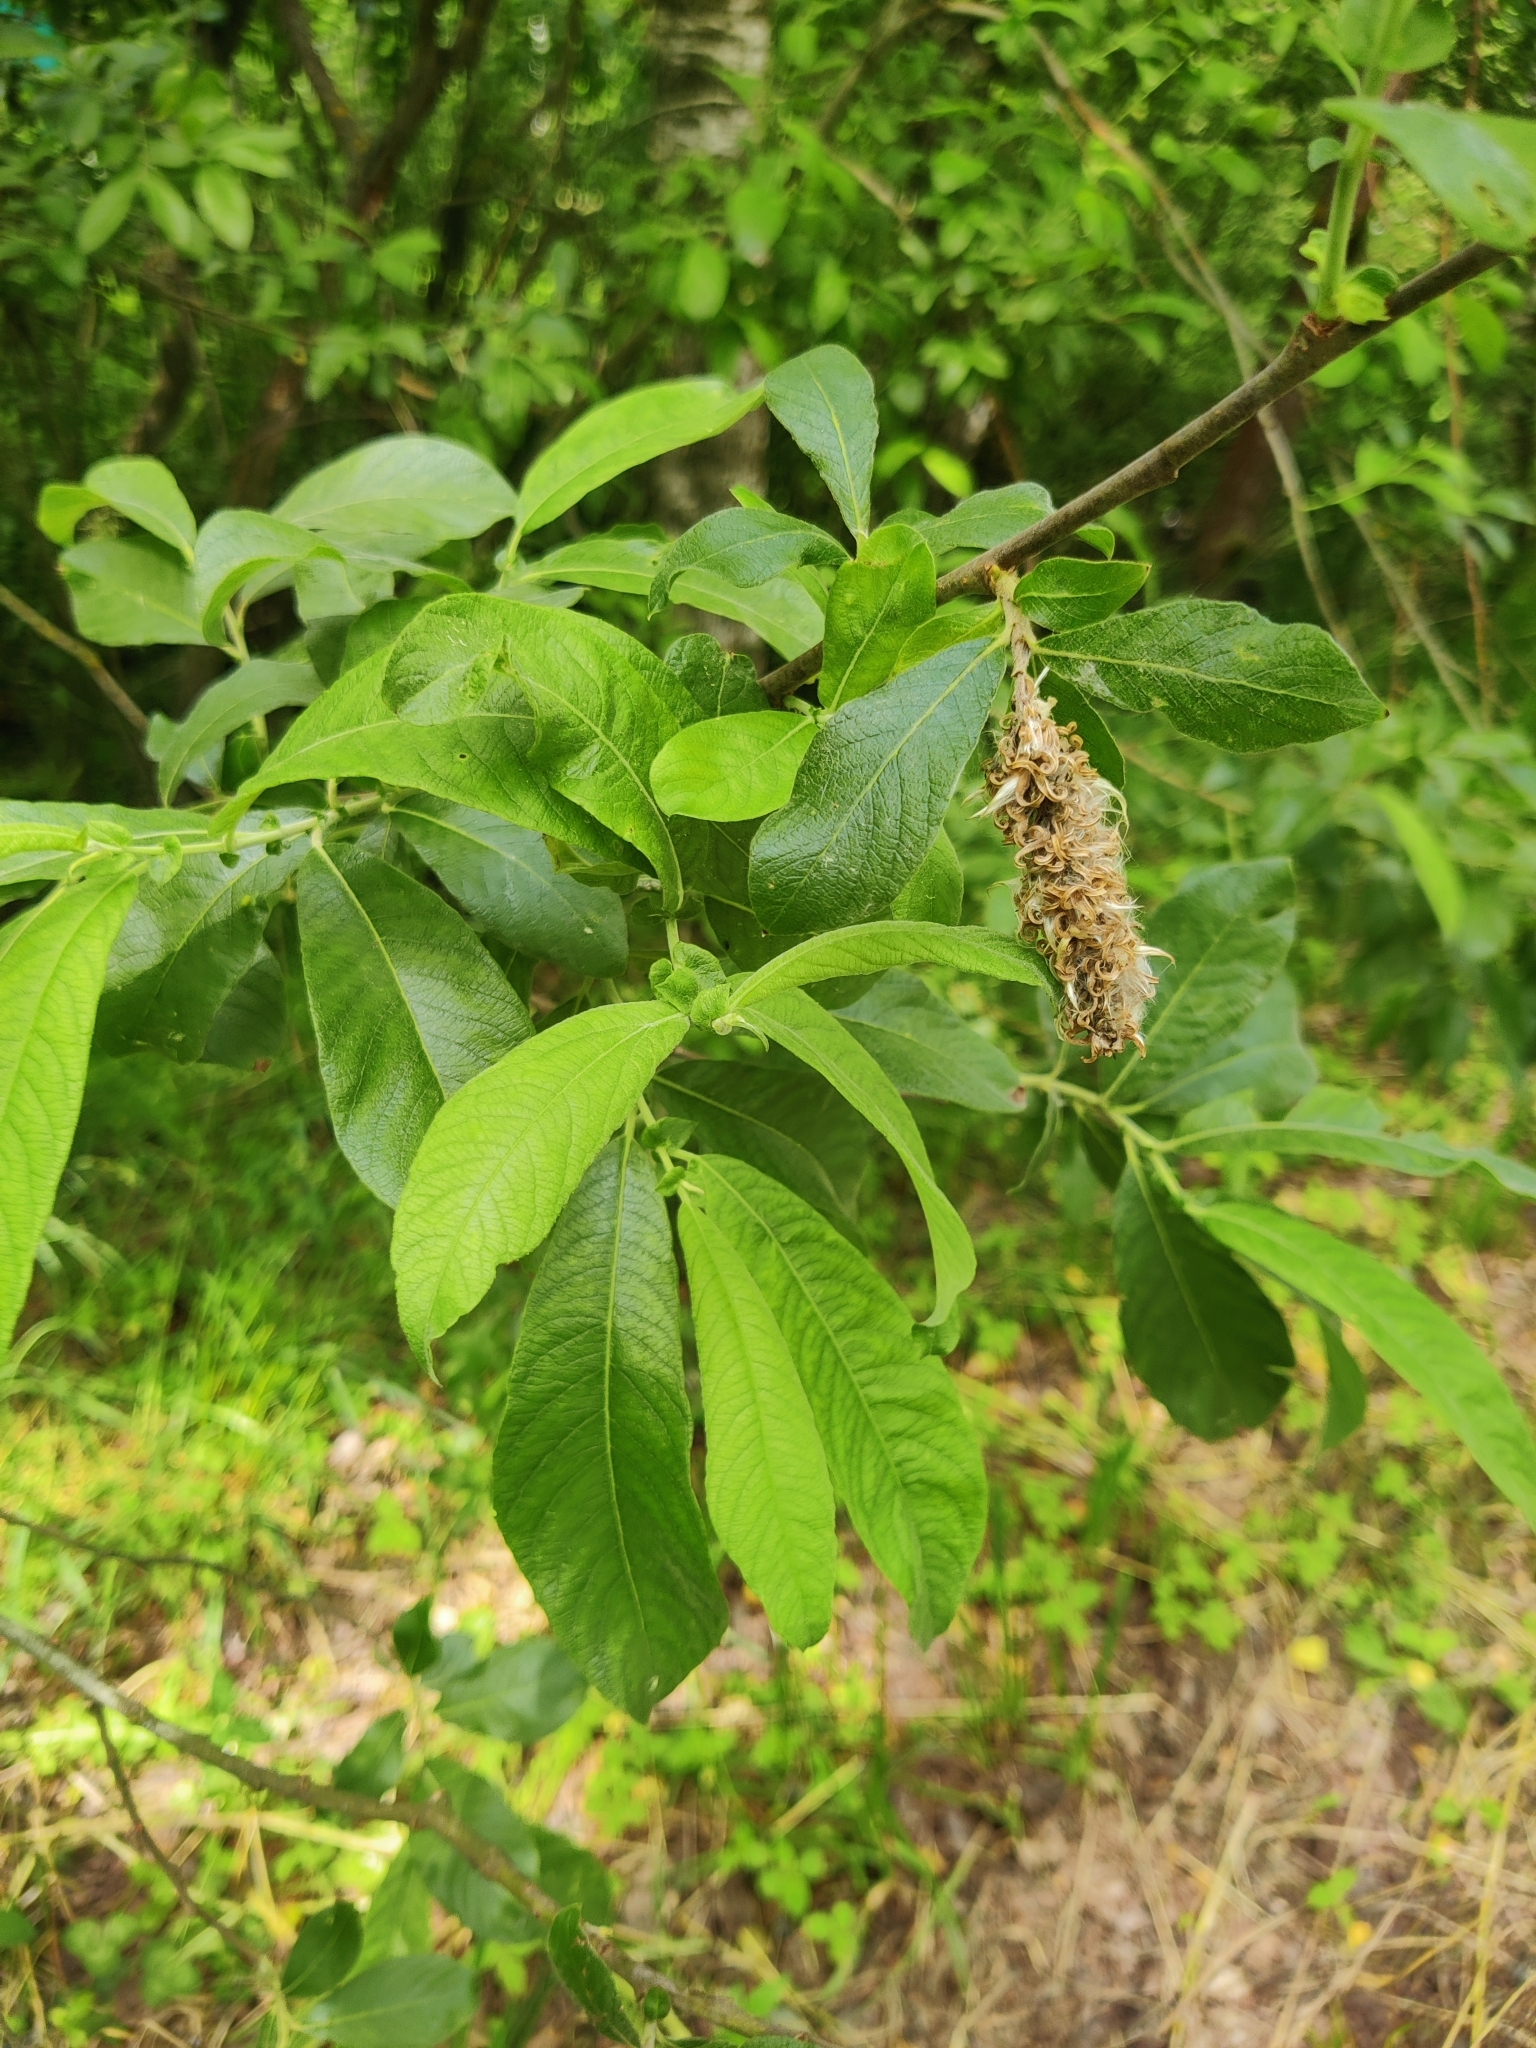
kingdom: Plantae
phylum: Tracheophyta
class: Magnoliopsida
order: Malpighiales
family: Salicaceae
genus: Salix
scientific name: Salix caprea
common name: Goat willow
